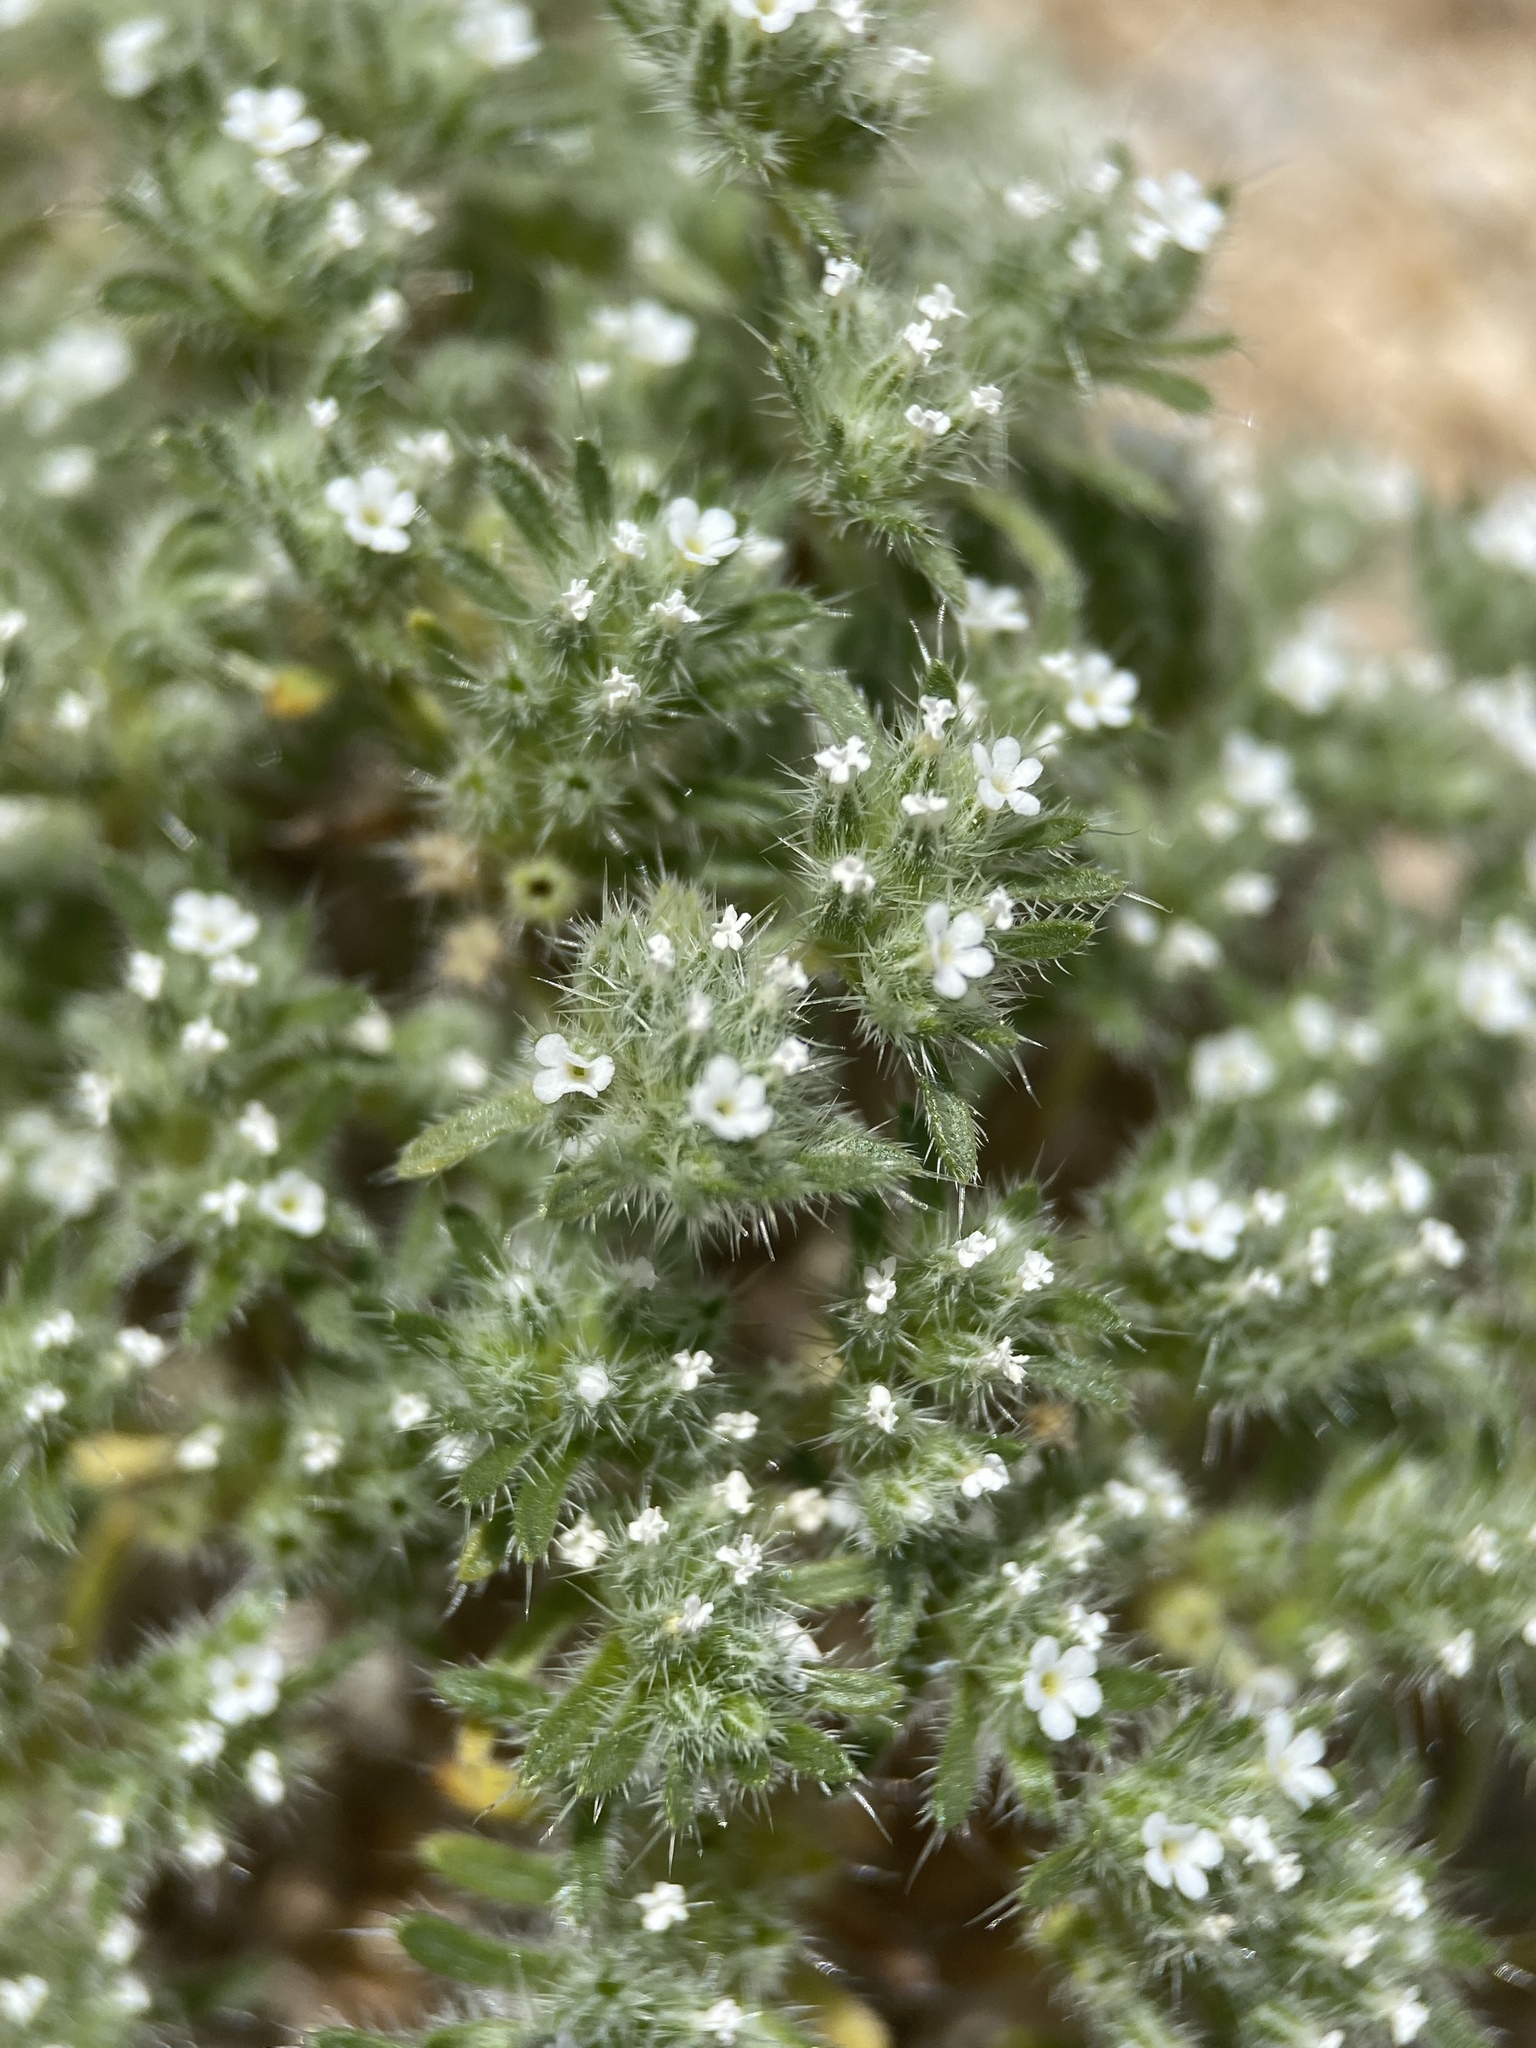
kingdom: Plantae
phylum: Tracheophyta
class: Magnoliopsida
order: Boraginales
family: Boraginaceae
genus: Greeneocharis
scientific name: Greeneocharis circumscissa
